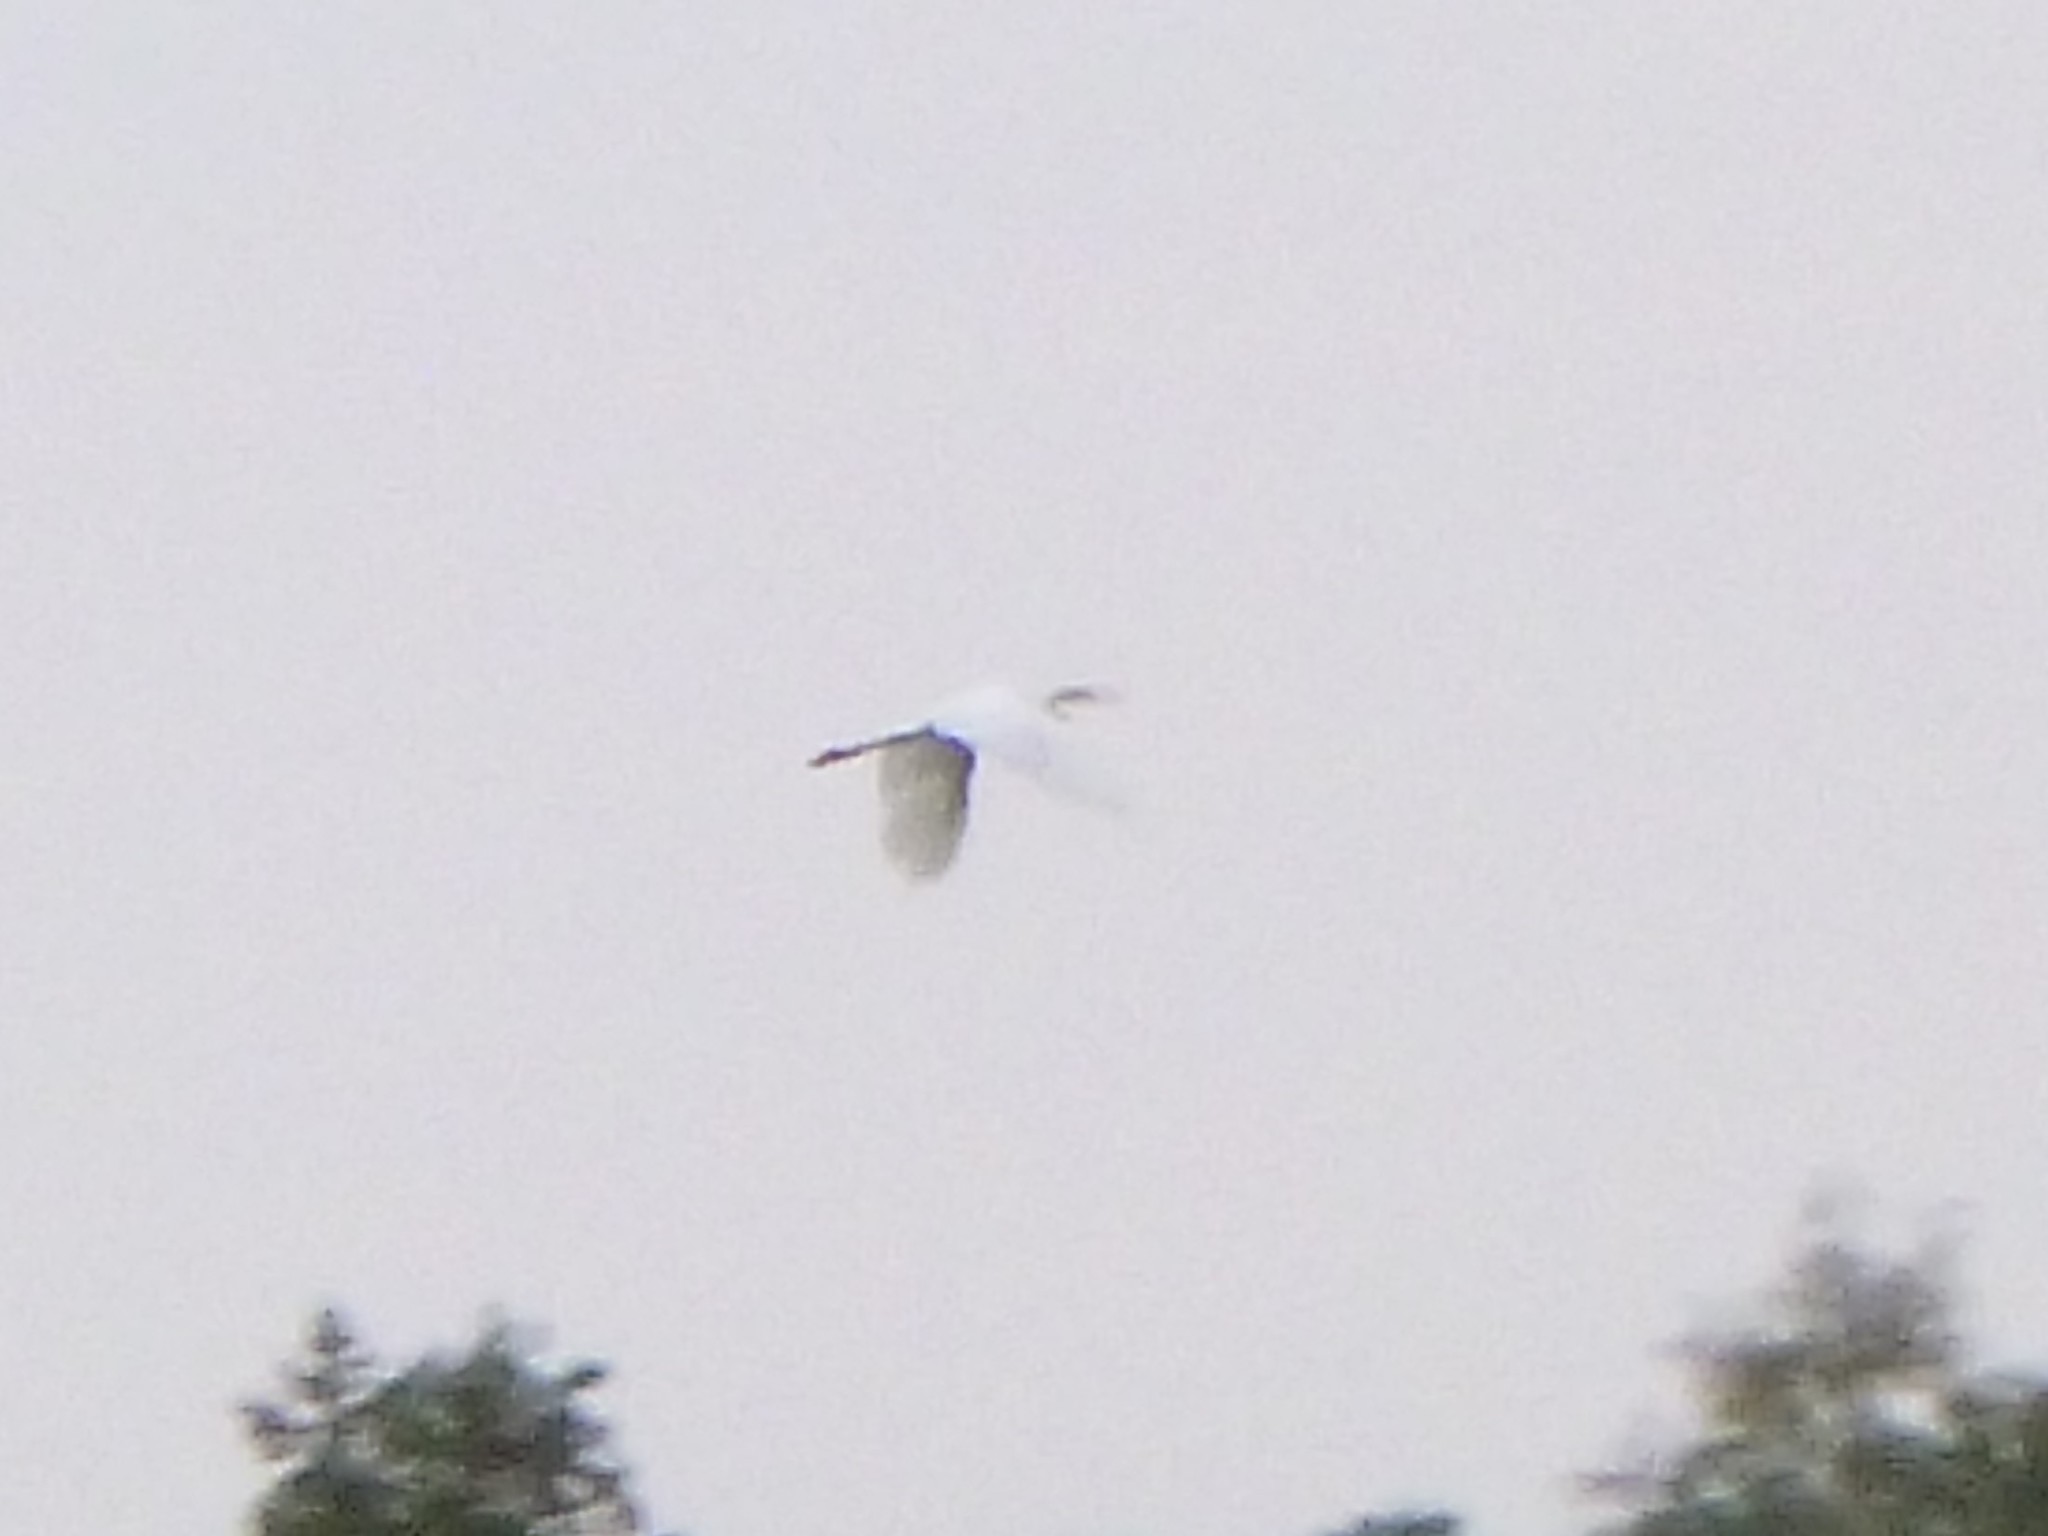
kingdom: Animalia
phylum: Chordata
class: Aves
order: Pelecaniformes
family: Ardeidae
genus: Ardea
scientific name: Ardea alba
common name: Great egret
